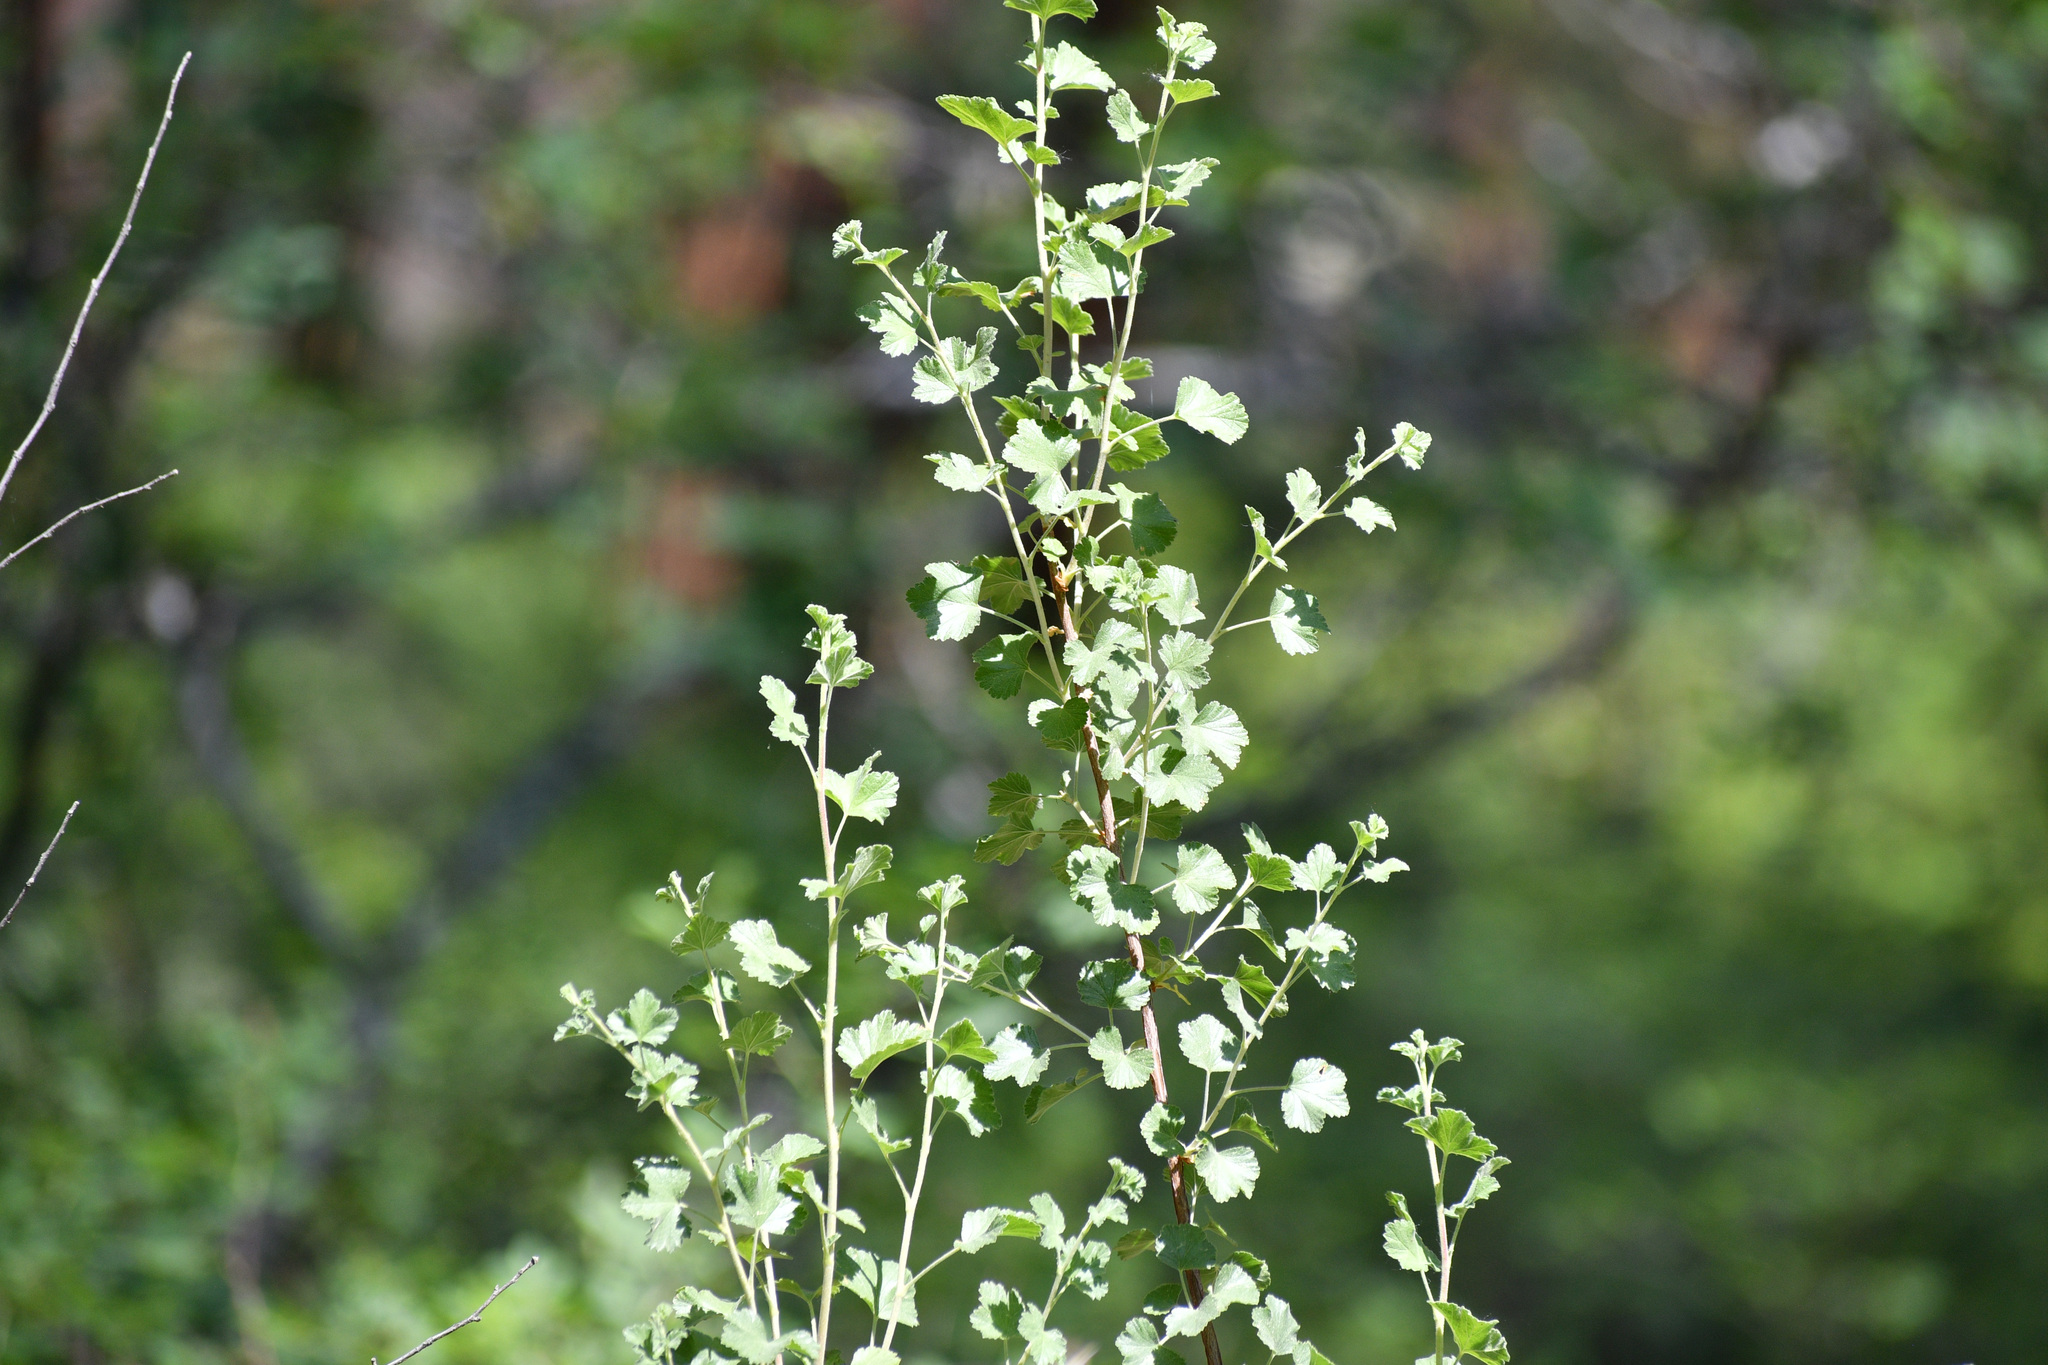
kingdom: Plantae
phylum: Tracheophyta
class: Magnoliopsida
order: Saxifragales
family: Grossulariaceae
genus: Ribes
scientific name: Ribes cereum
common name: Wax currant
